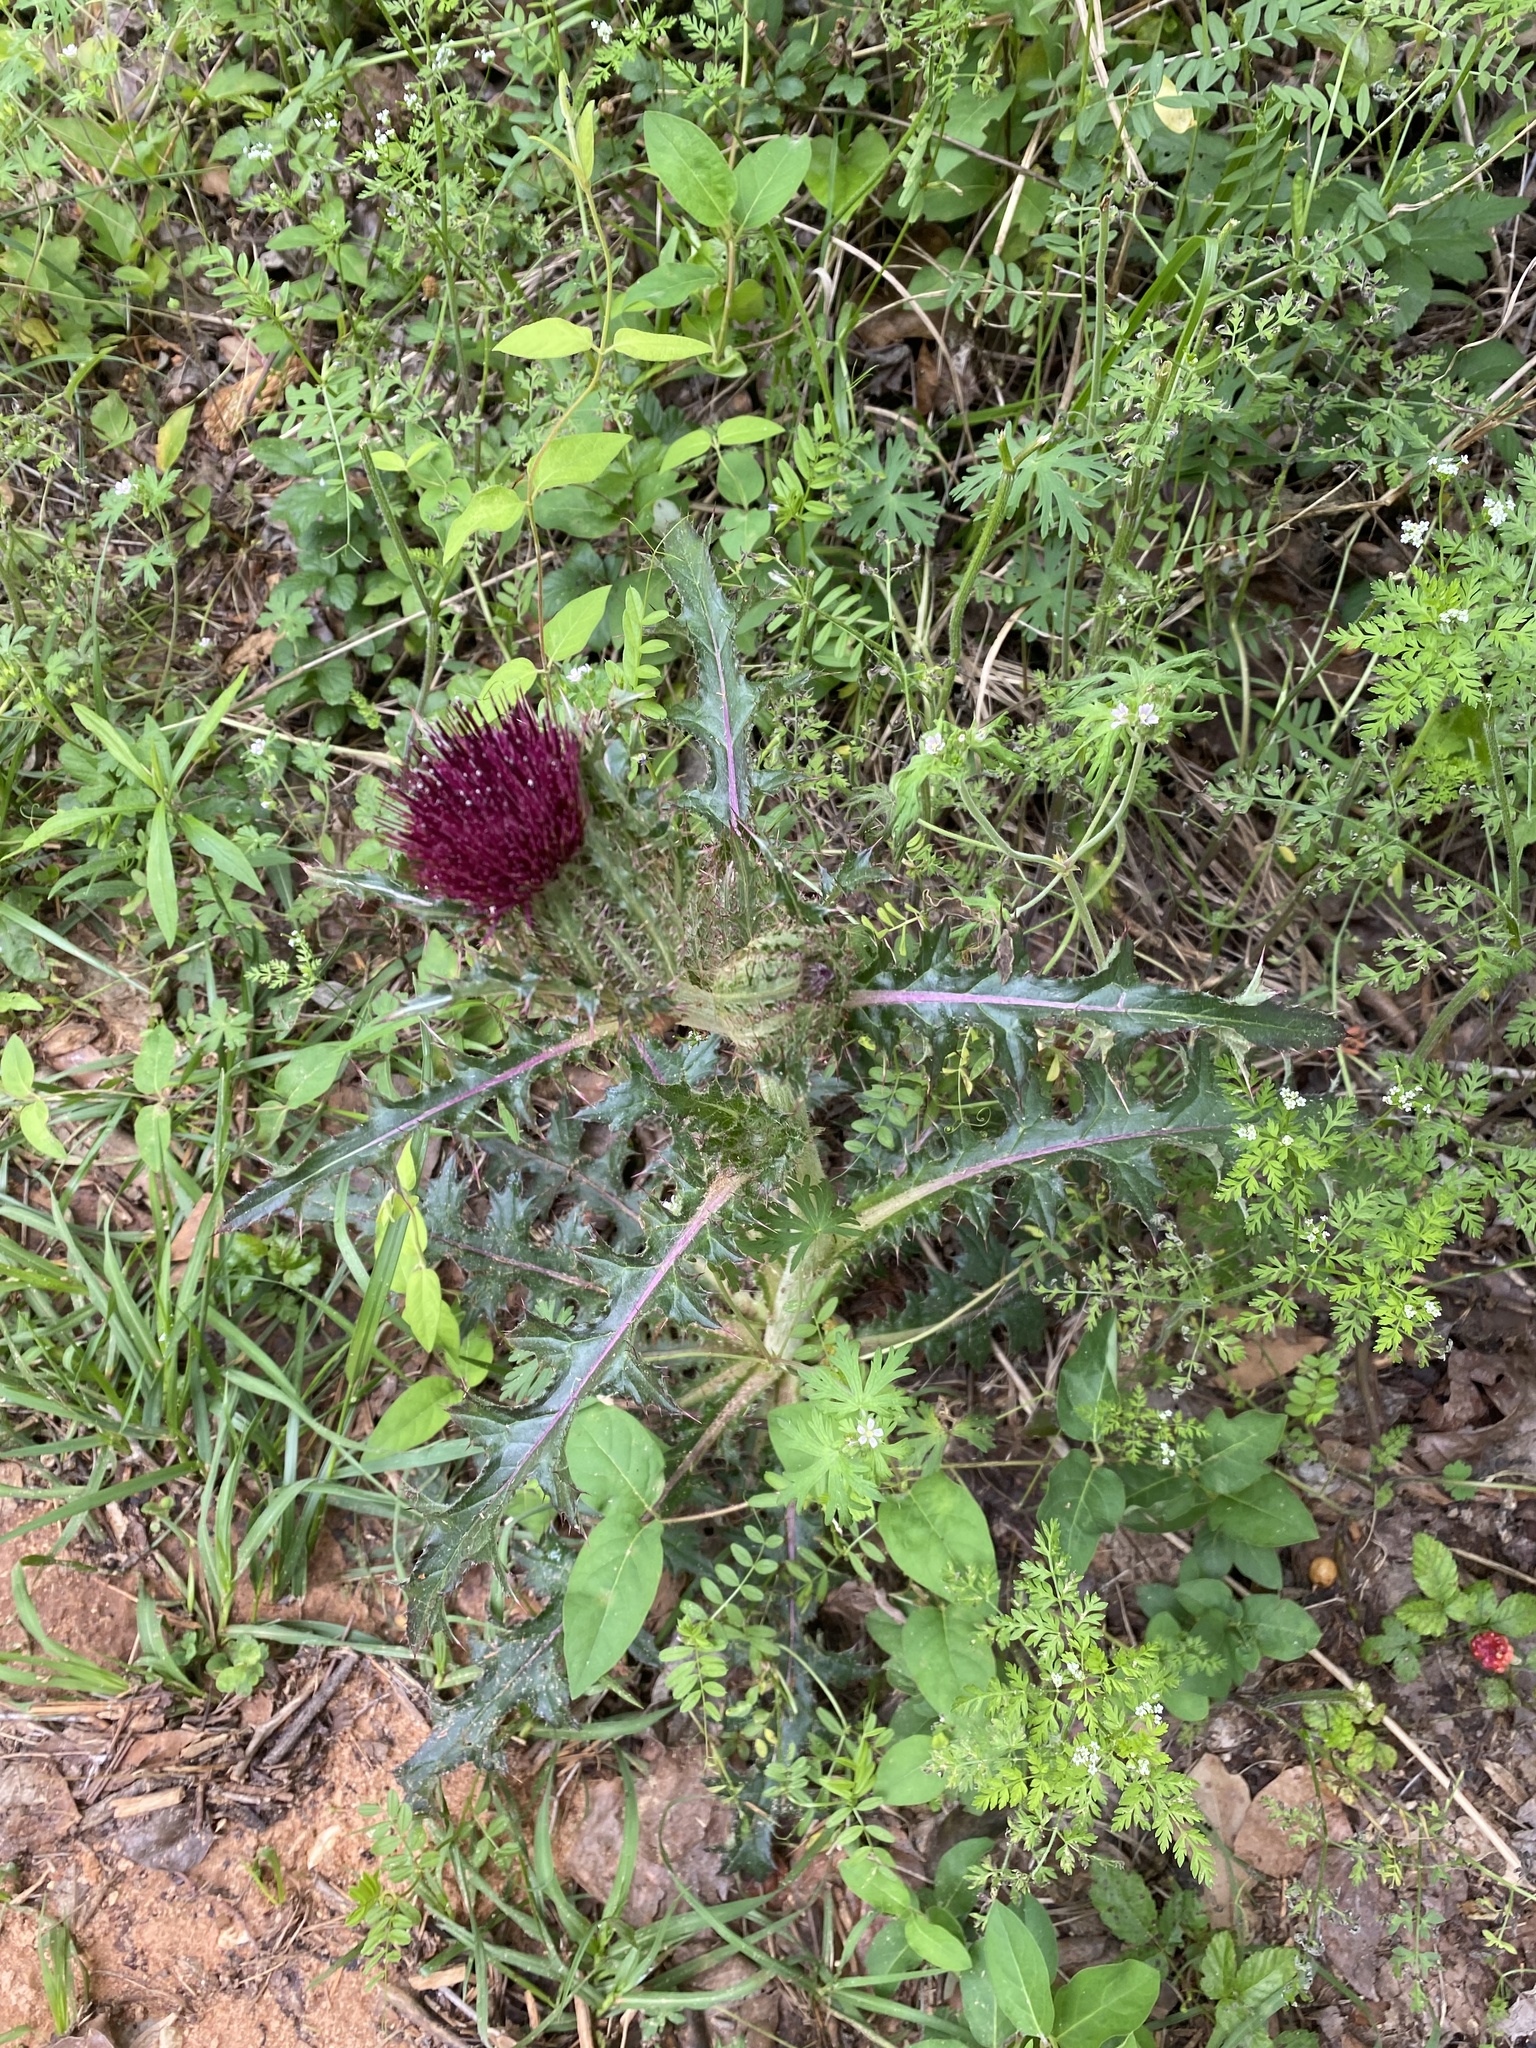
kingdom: Plantae
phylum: Tracheophyta
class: Magnoliopsida
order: Asterales
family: Asteraceae
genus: Cirsium
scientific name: Cirsium horridulum
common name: Bristly thistle
